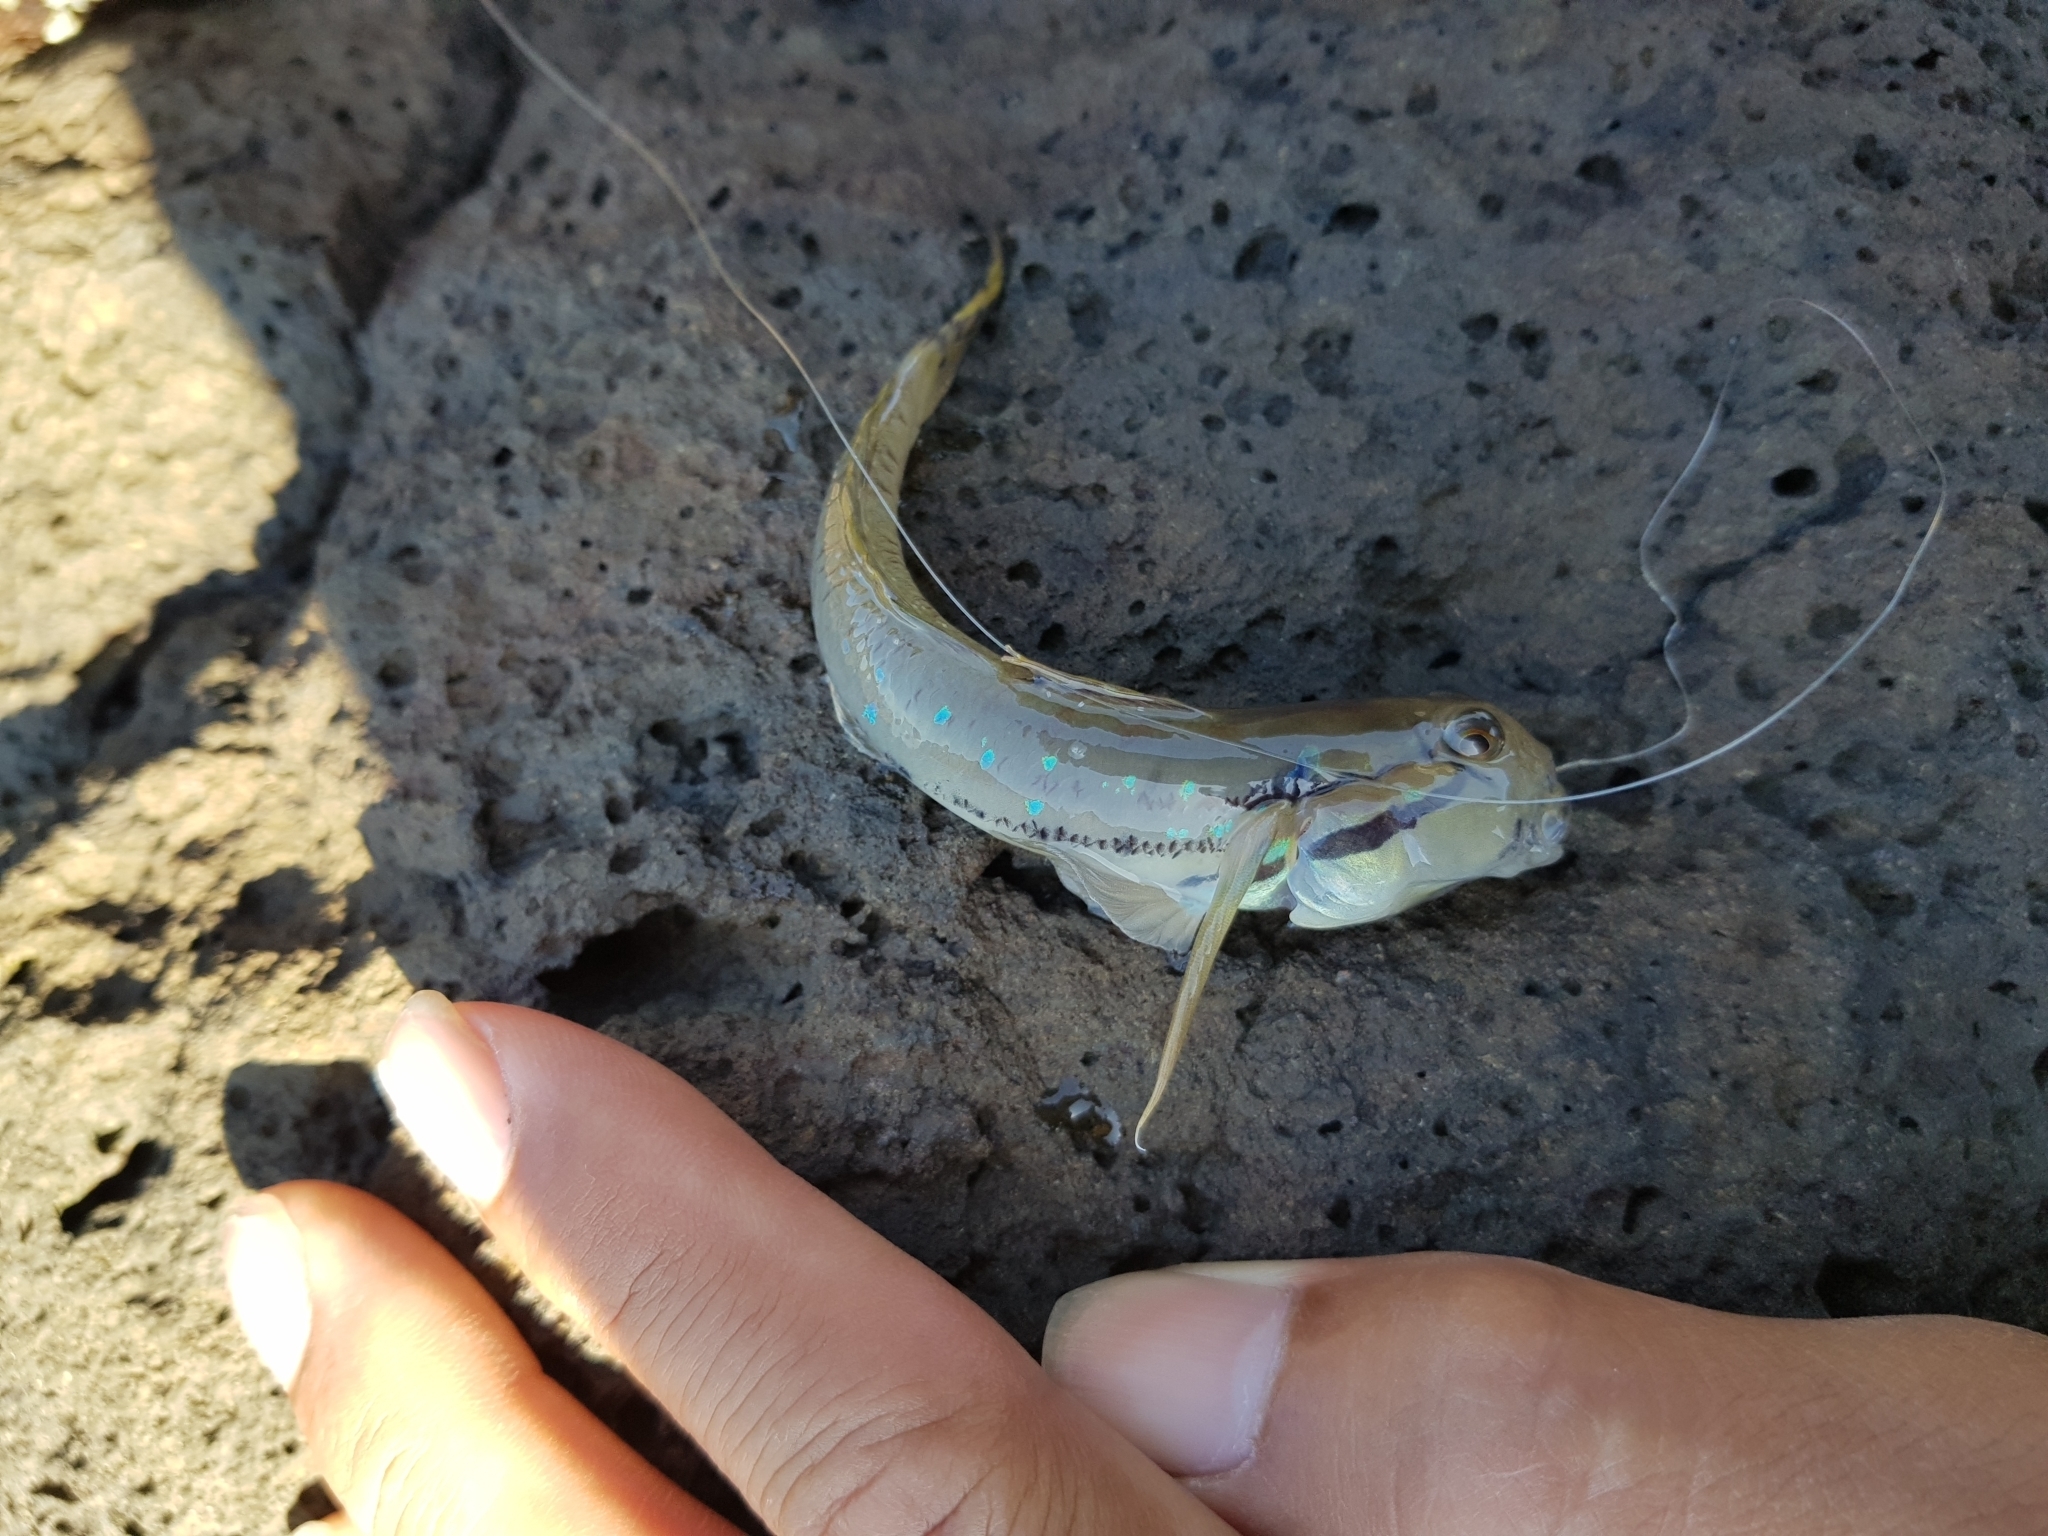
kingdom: Animalia
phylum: Chordata
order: Perciformes
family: Gobiidae
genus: Arenigobius
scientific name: Arenigobius bifrenatus
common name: Bridled goby
